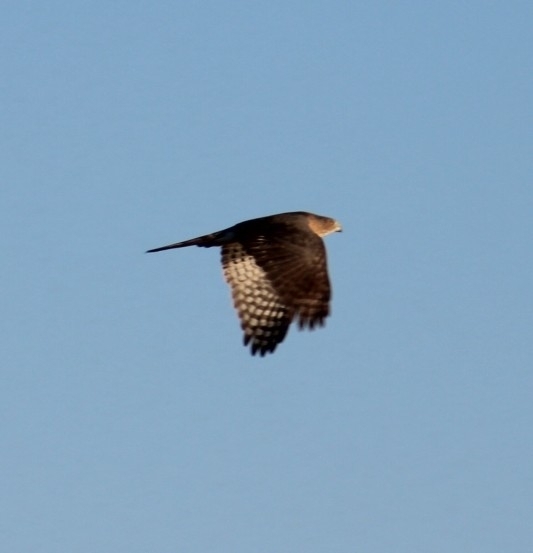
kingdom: Animalia
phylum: Chordata
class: Aves
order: Accipitriformes
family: Accipitridae
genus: Accipiter
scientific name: Accipiter cooperii
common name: Cooper's hawk
